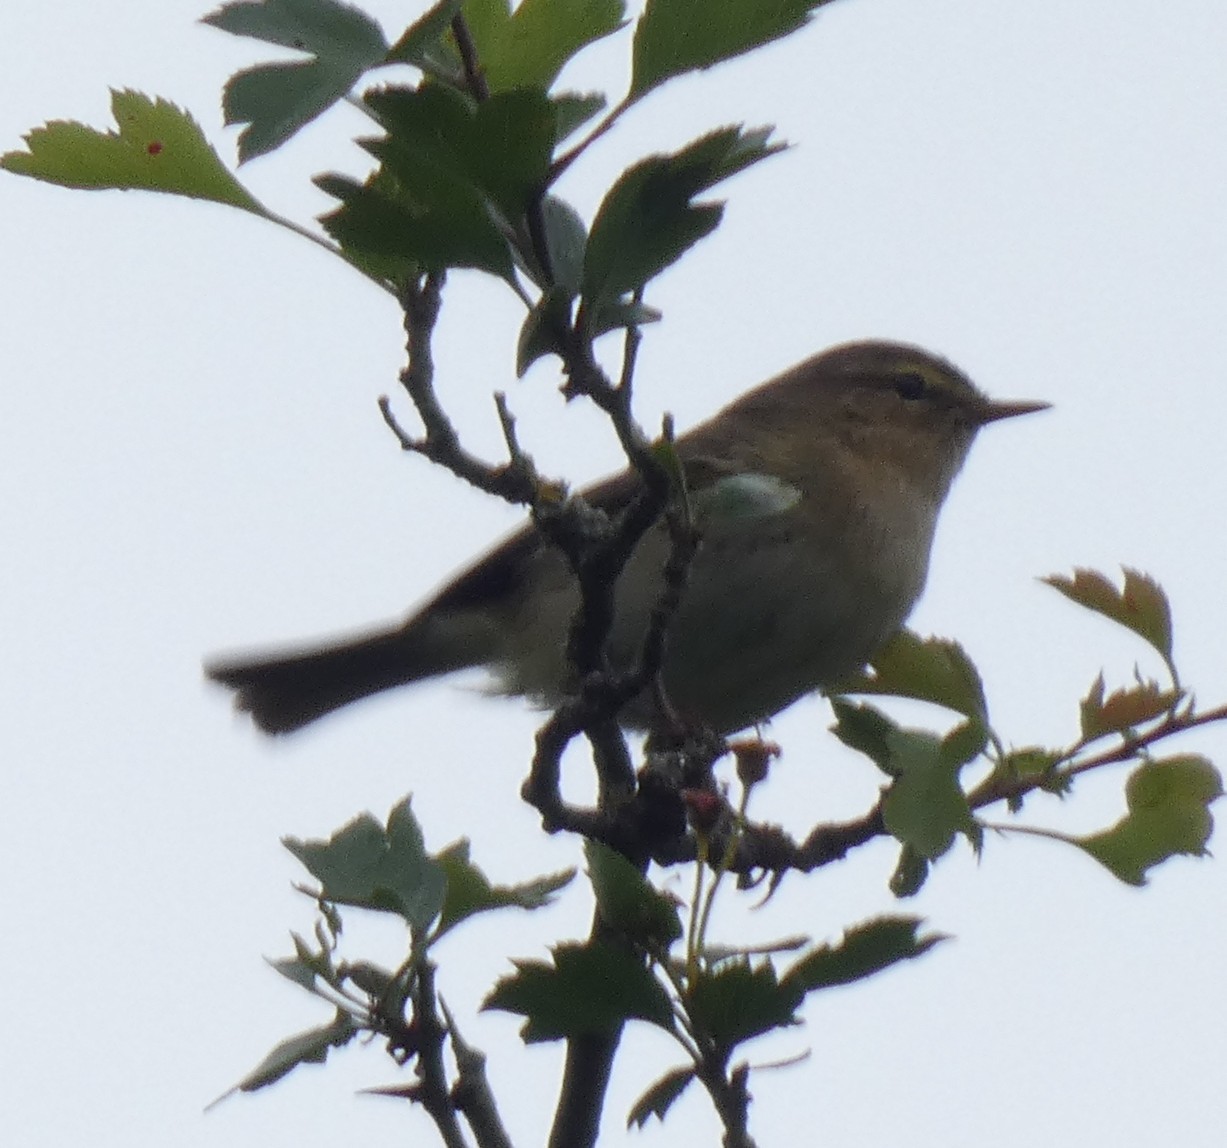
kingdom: Animalia
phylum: Chordata
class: Aves
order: Passeriformes
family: Phylloscopidae
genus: Phylloscopus
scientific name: Phylloscopus collybita
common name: Common chiffchaff
